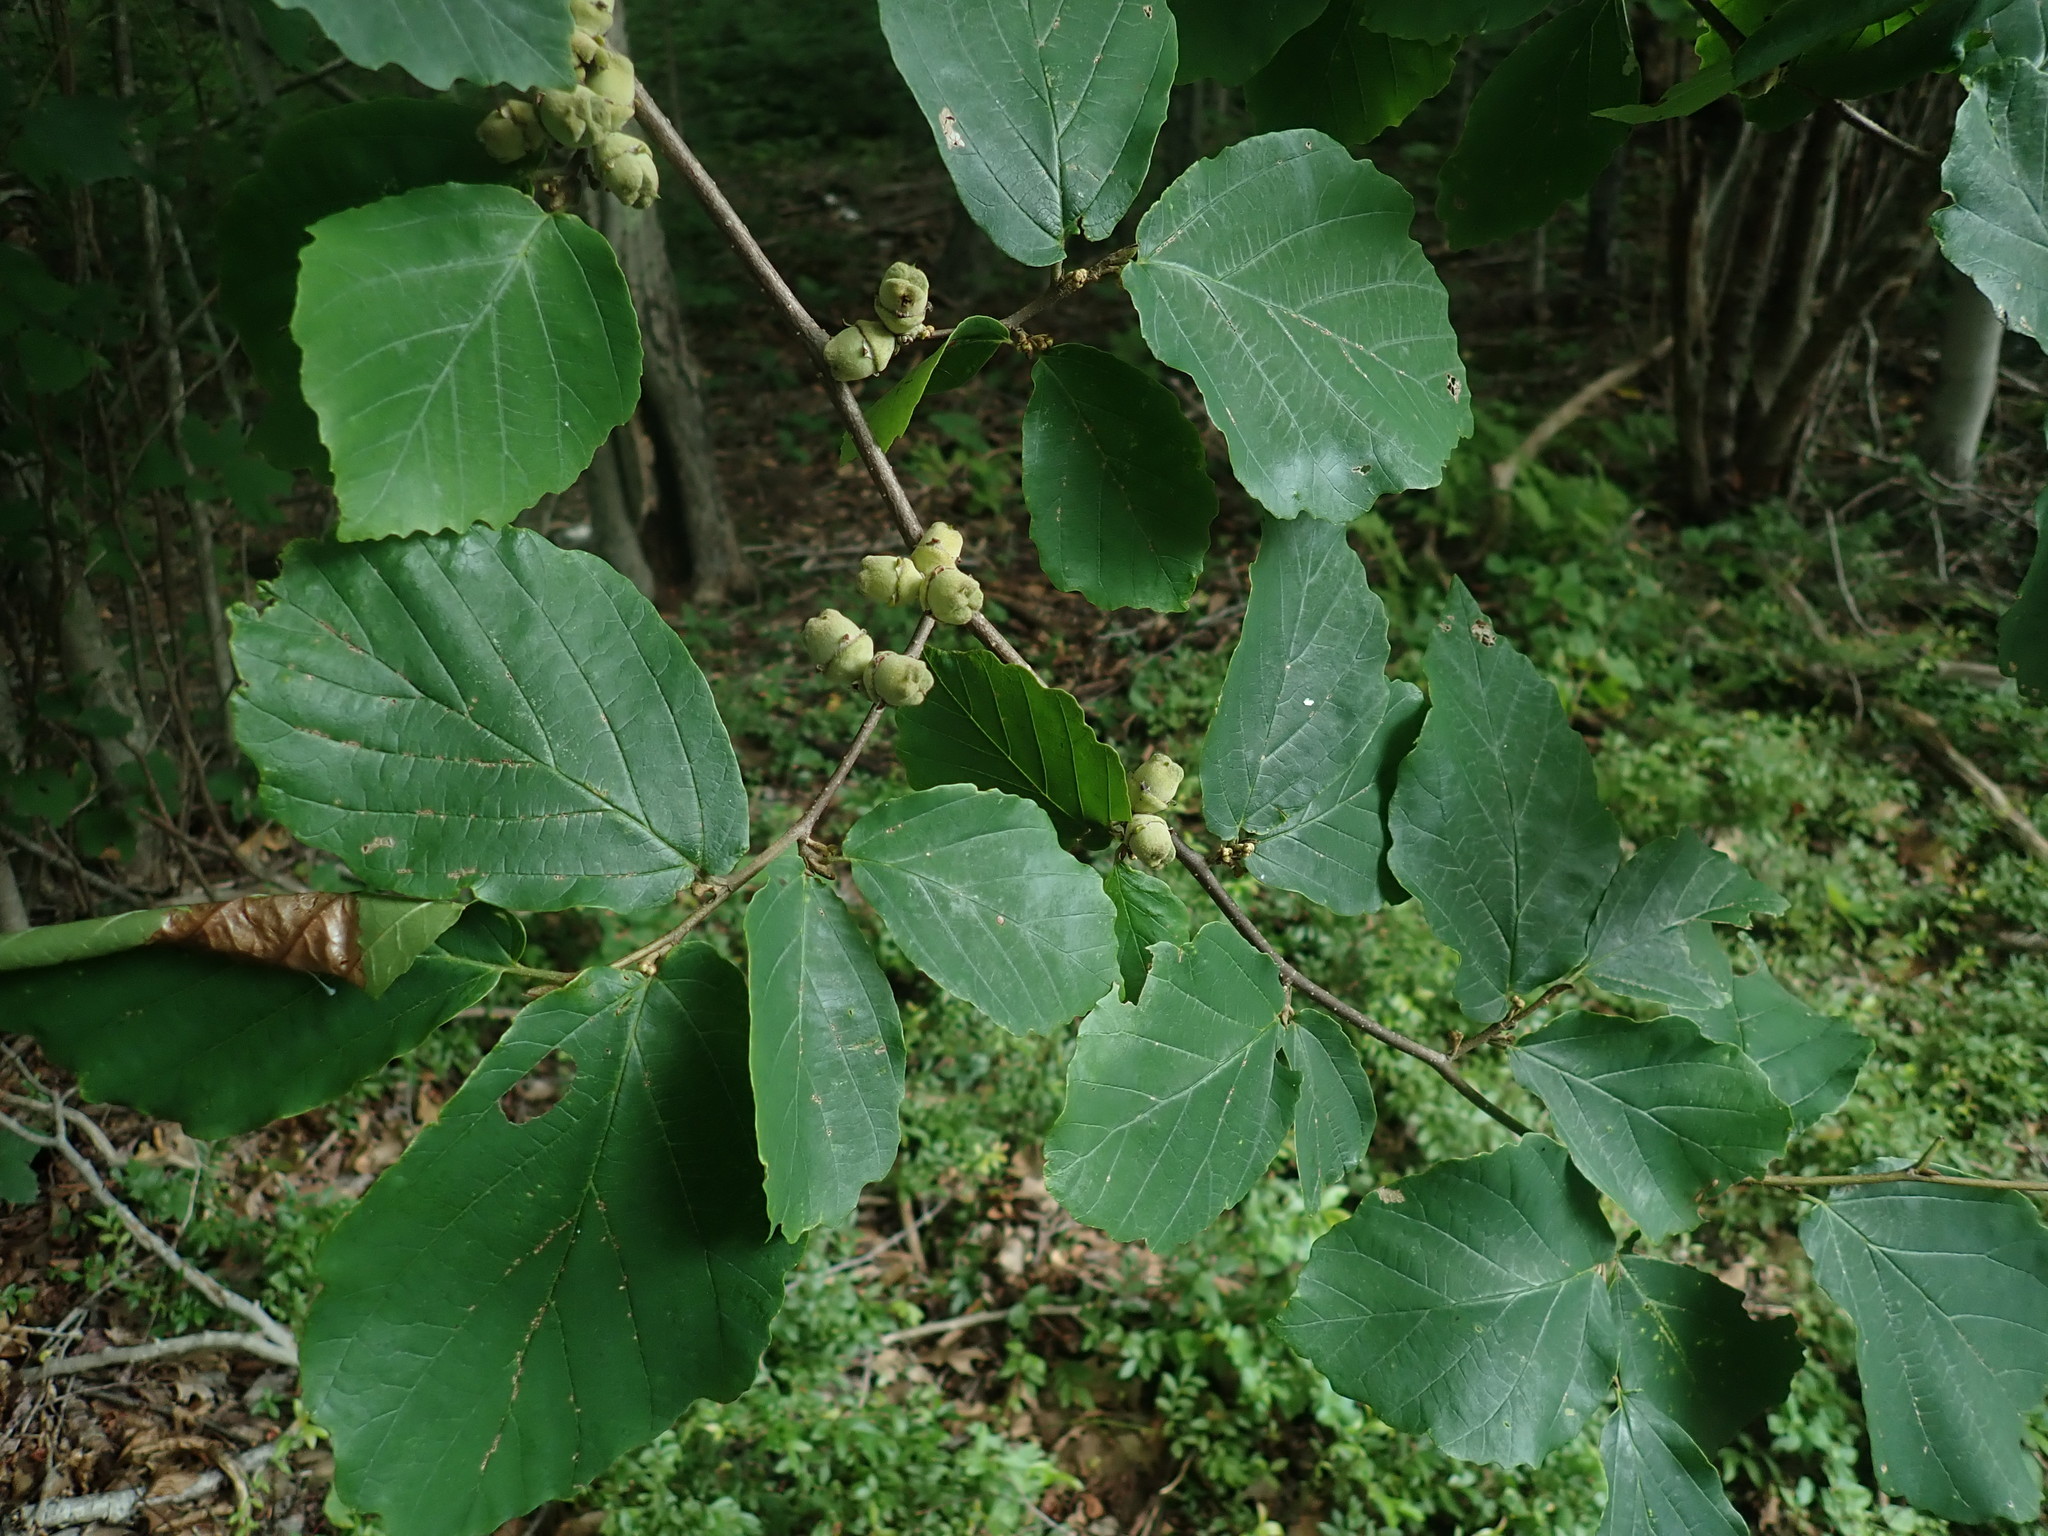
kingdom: Plantae
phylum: Tracheophyta
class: Magnoliopsida
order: Saxifragales
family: Hamamelidaceae
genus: Hamamelis
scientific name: Hamamelis virginiana
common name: Witch-hazel
